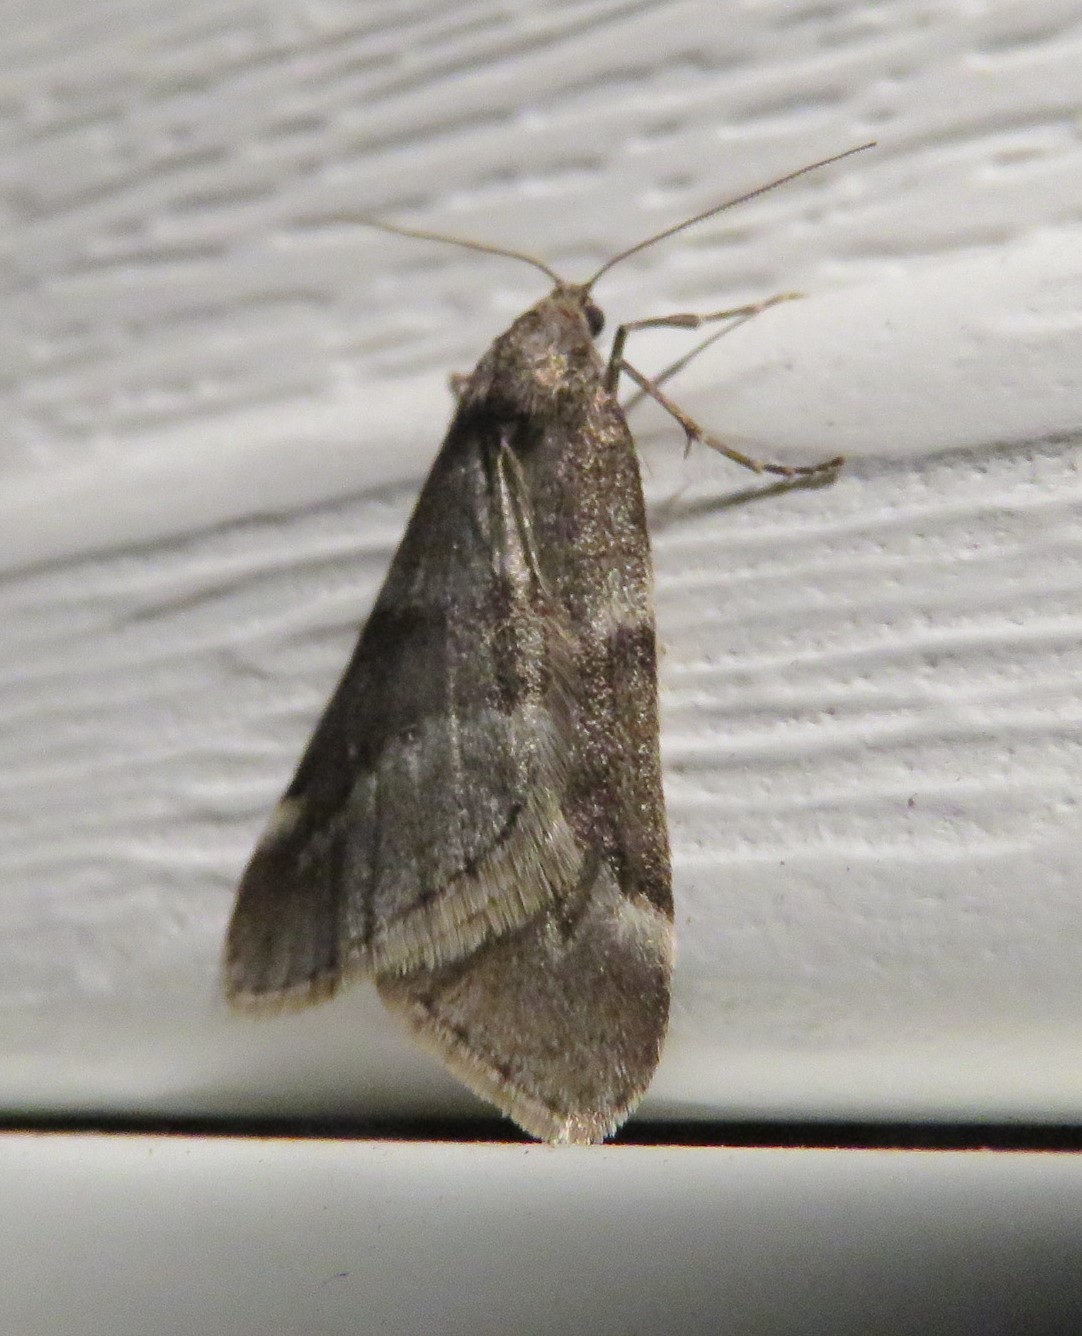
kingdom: Animalia
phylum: Arthropoda
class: Insecta
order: Lepidoptera
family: Geometridae
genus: Alsophila
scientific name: Alsophila pometaria
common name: Fall cankerworm
